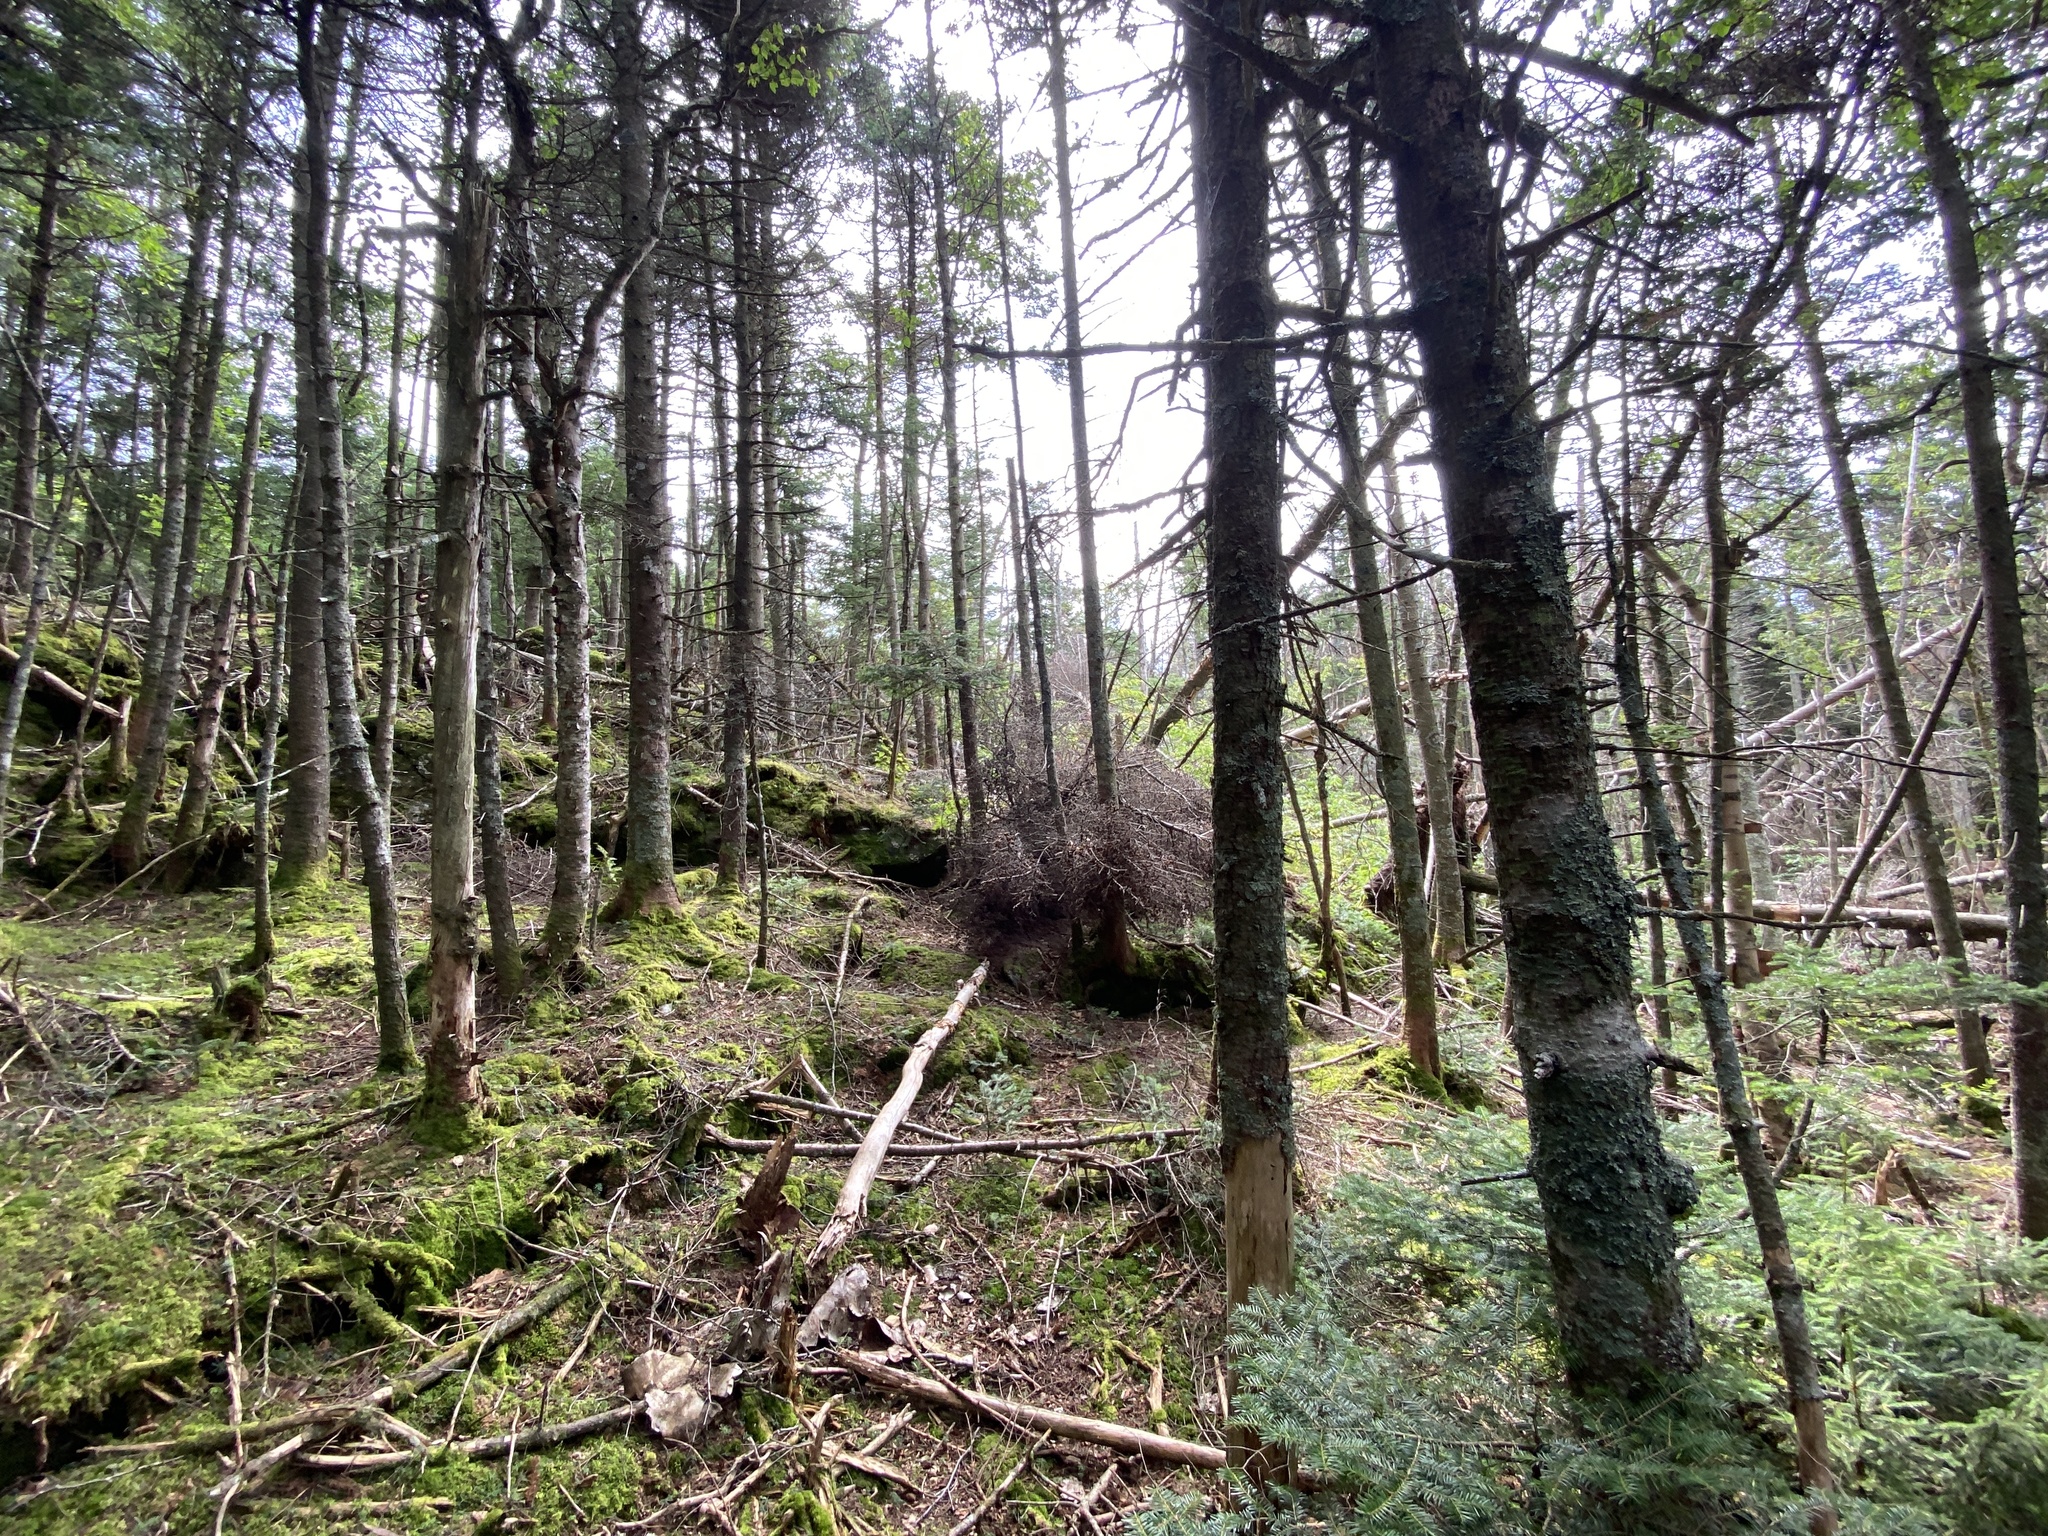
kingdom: Plantae
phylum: Tracheophyta
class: Pinopsida
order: Pinales
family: Pinaceae
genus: Abies
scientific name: Abies balsamea
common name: Balsam fir
